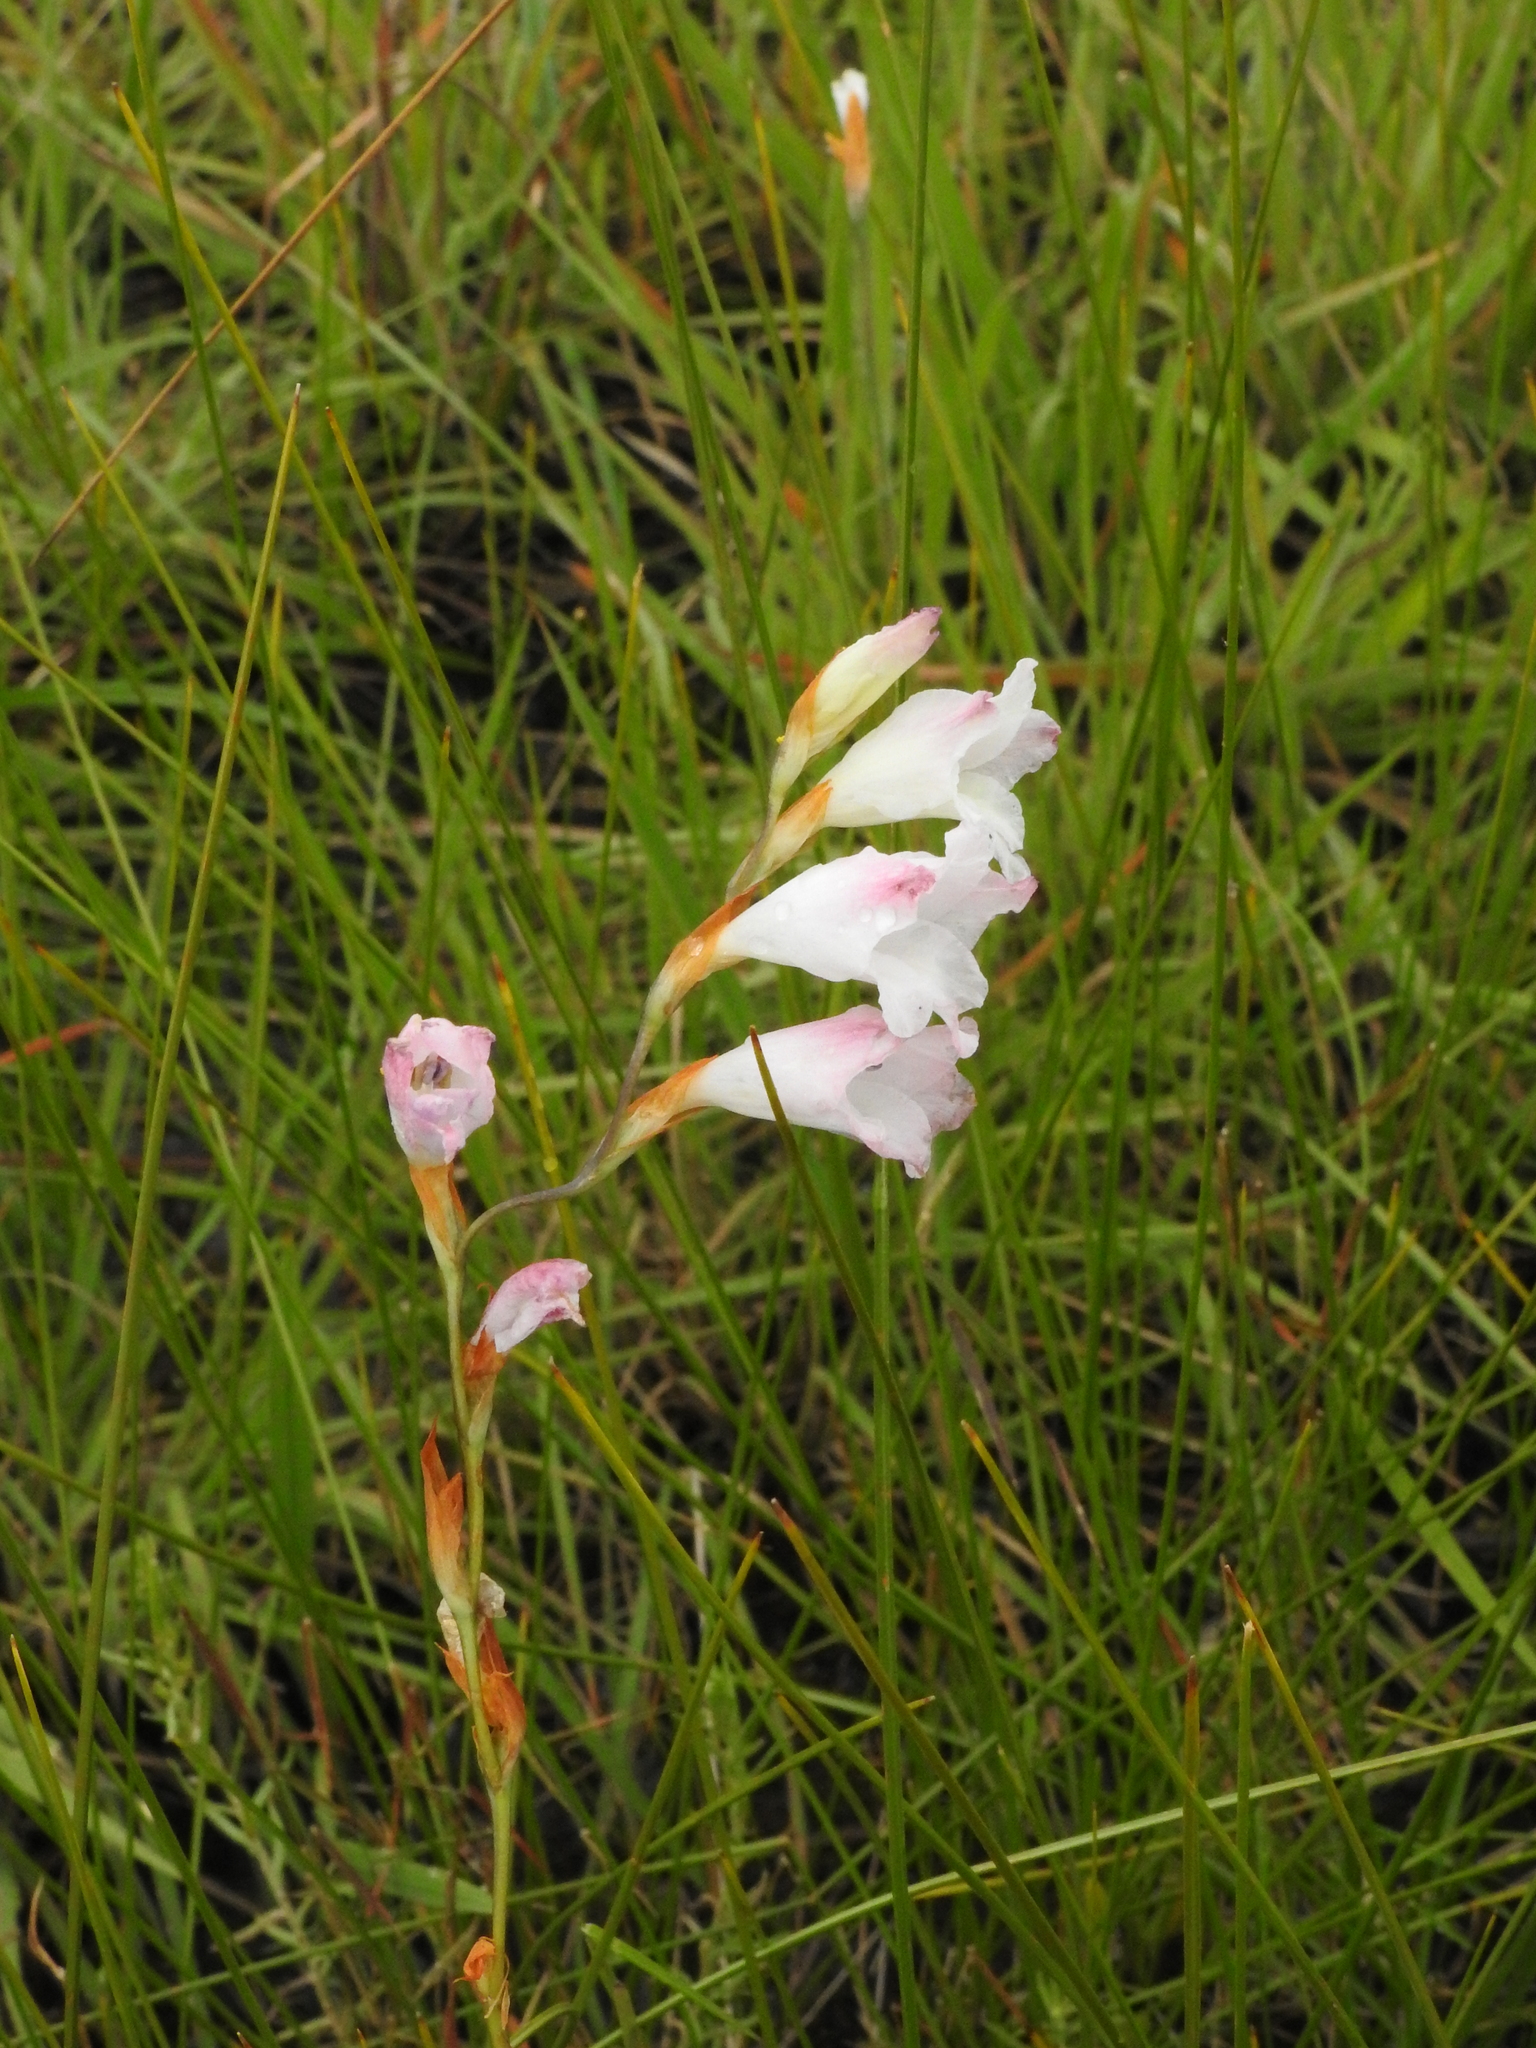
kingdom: Plantae
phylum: Tracheophyta
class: Liliopsida
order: Asparagales
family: Iridaceae
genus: Gladiolus
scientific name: Gladiolus ferrugineus
